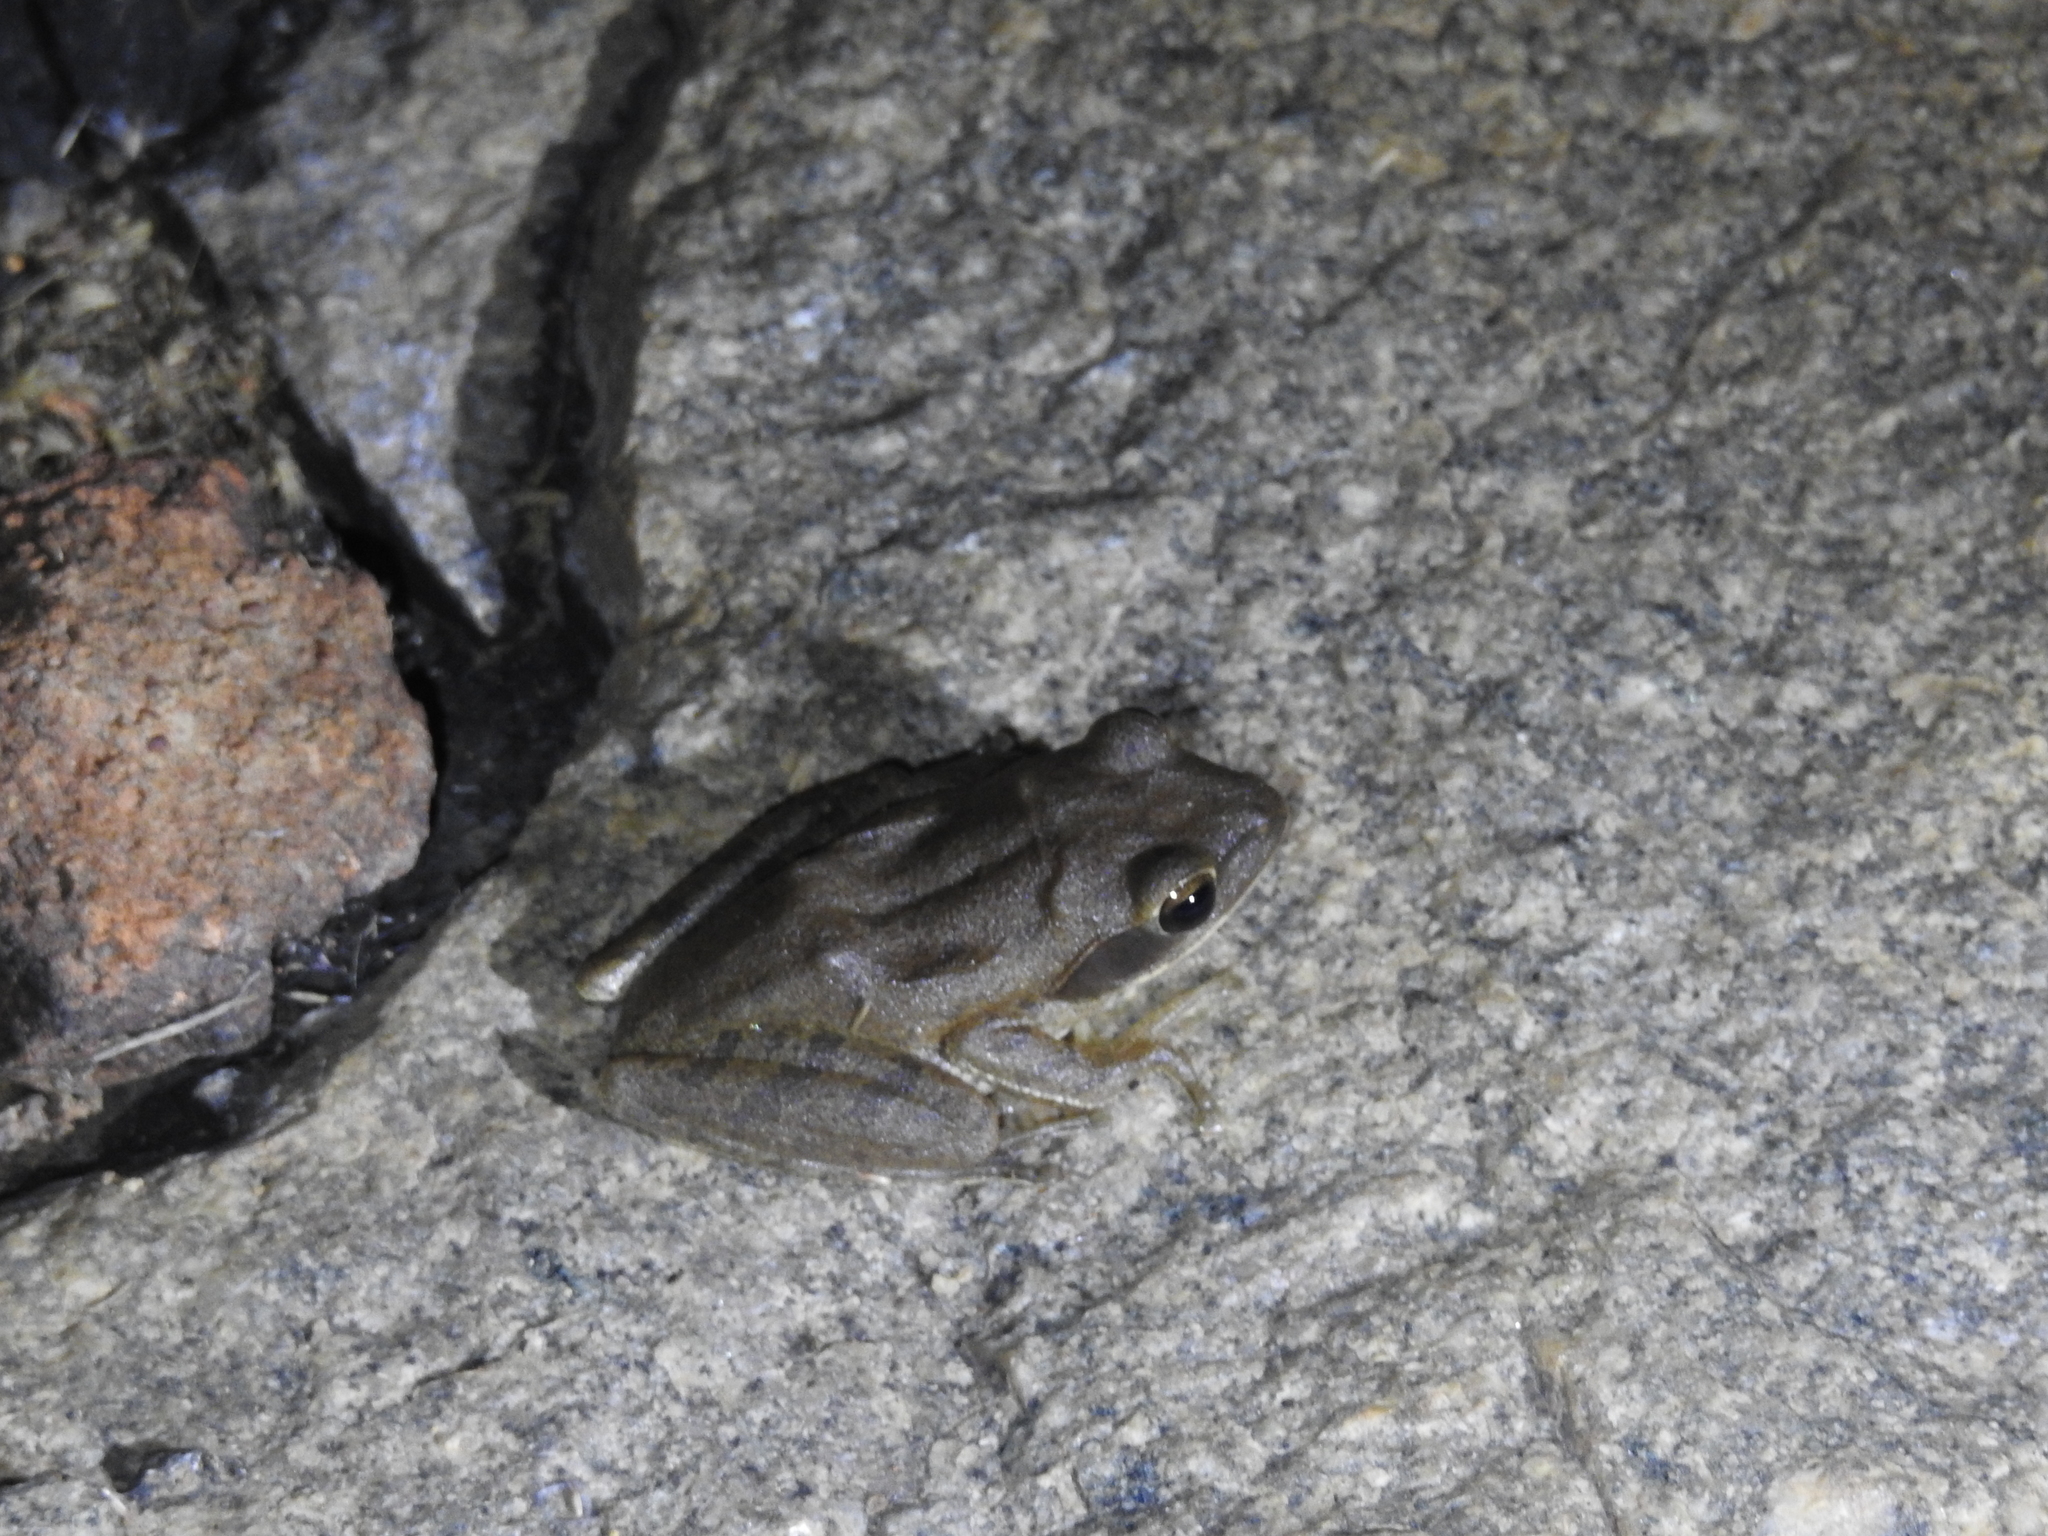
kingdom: Animalia
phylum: Chordata
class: Amphibia
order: Anura
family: Rhacophoridae
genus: Polypedates
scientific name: Polypedates maculatus
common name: Himalayan tree frog
